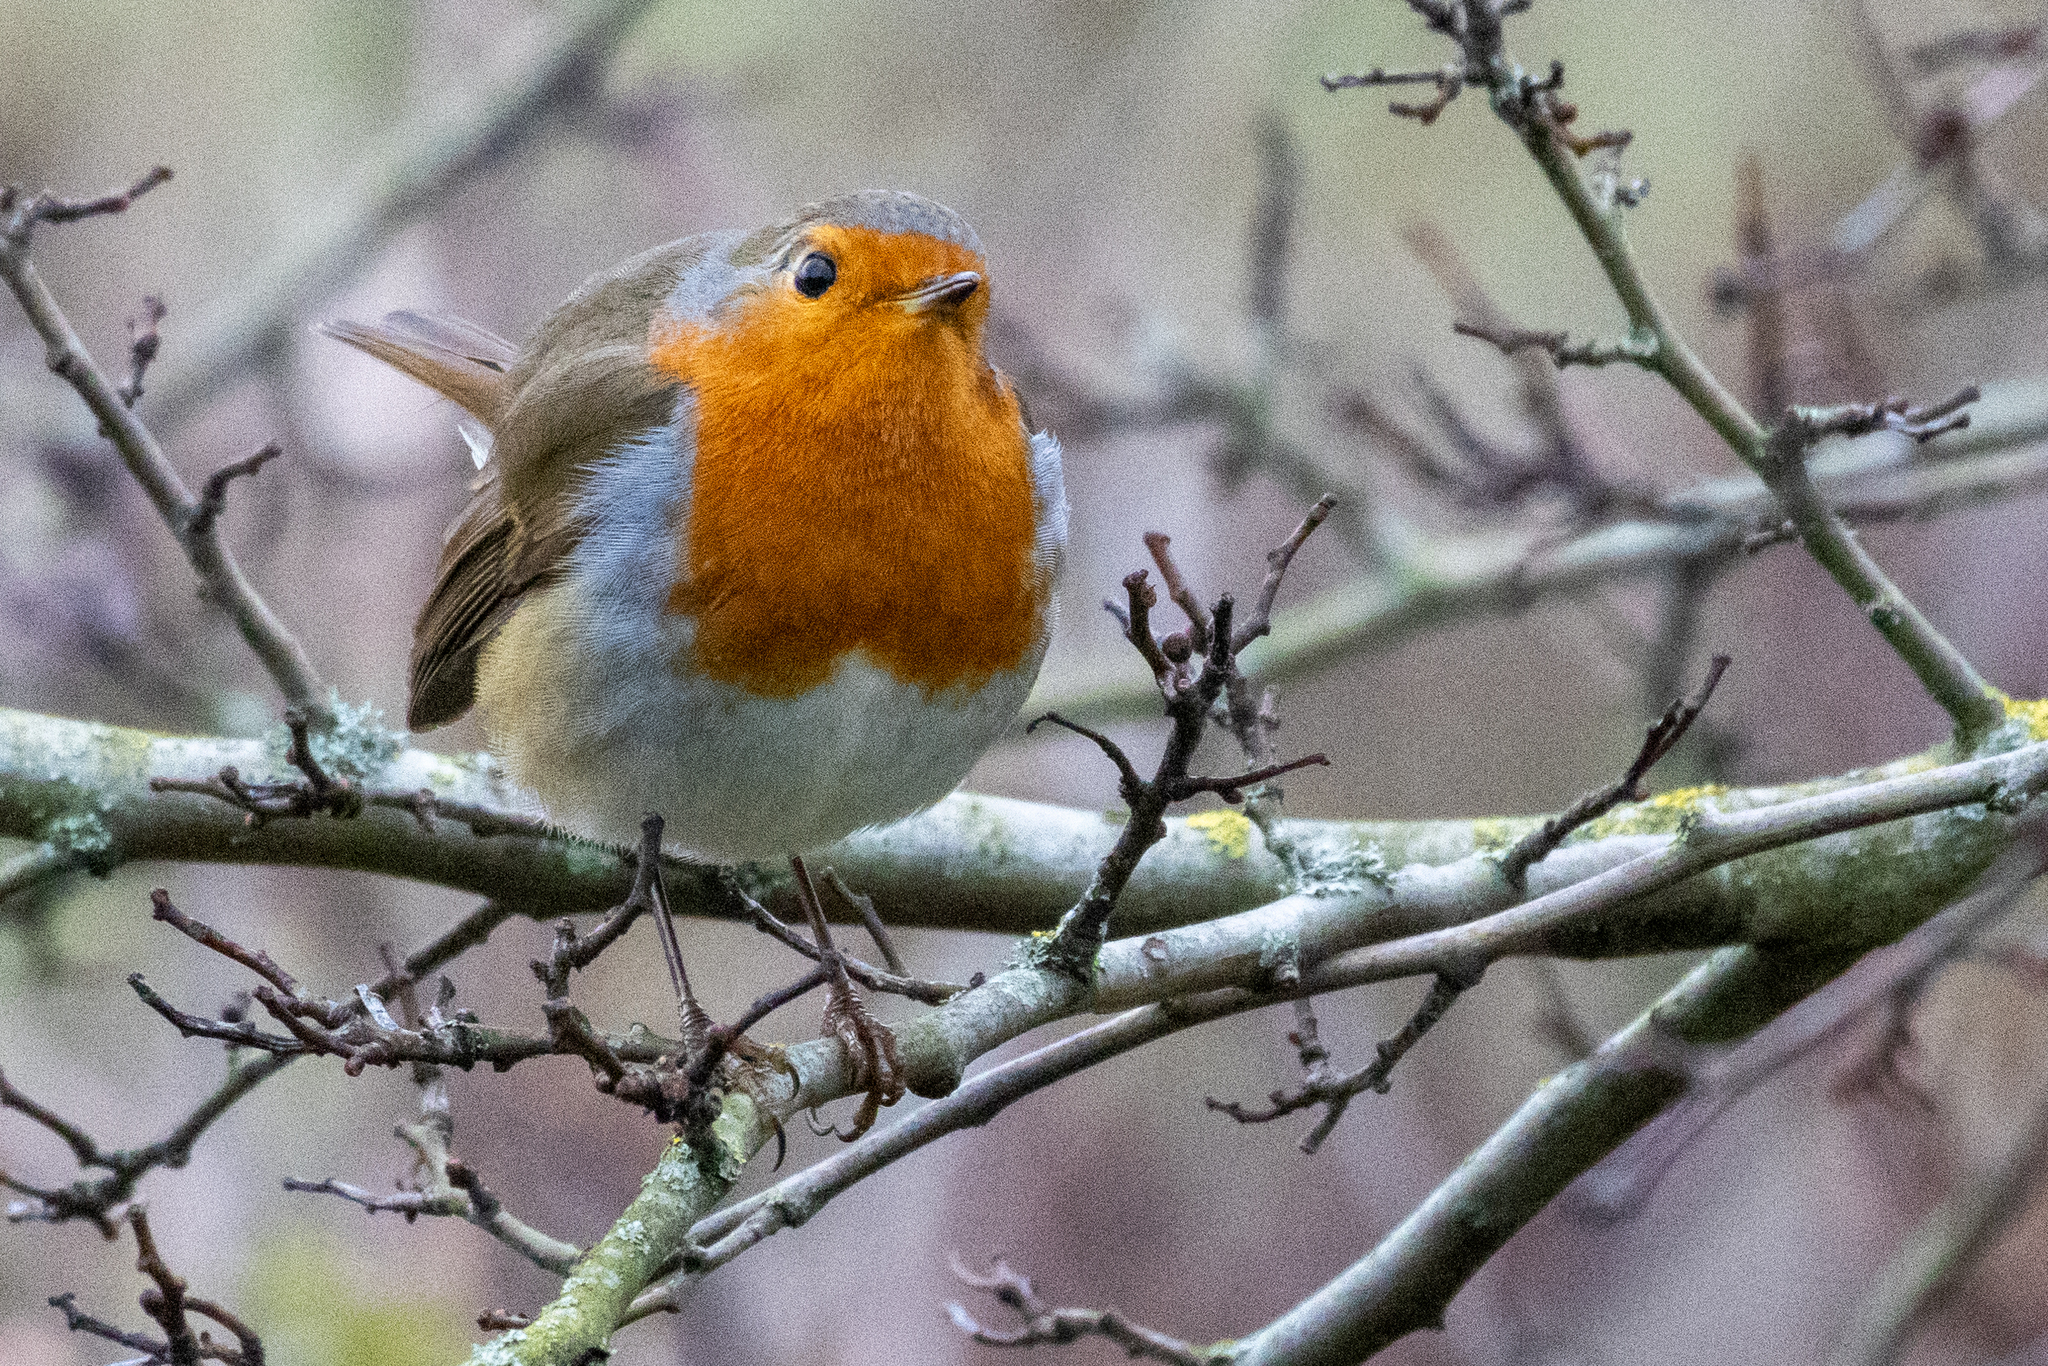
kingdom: Animalia
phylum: Chordata
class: Aves
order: Passeriformes
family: Muscicapidae
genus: Erithacus
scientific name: Erithacus rubecula
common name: European robin
